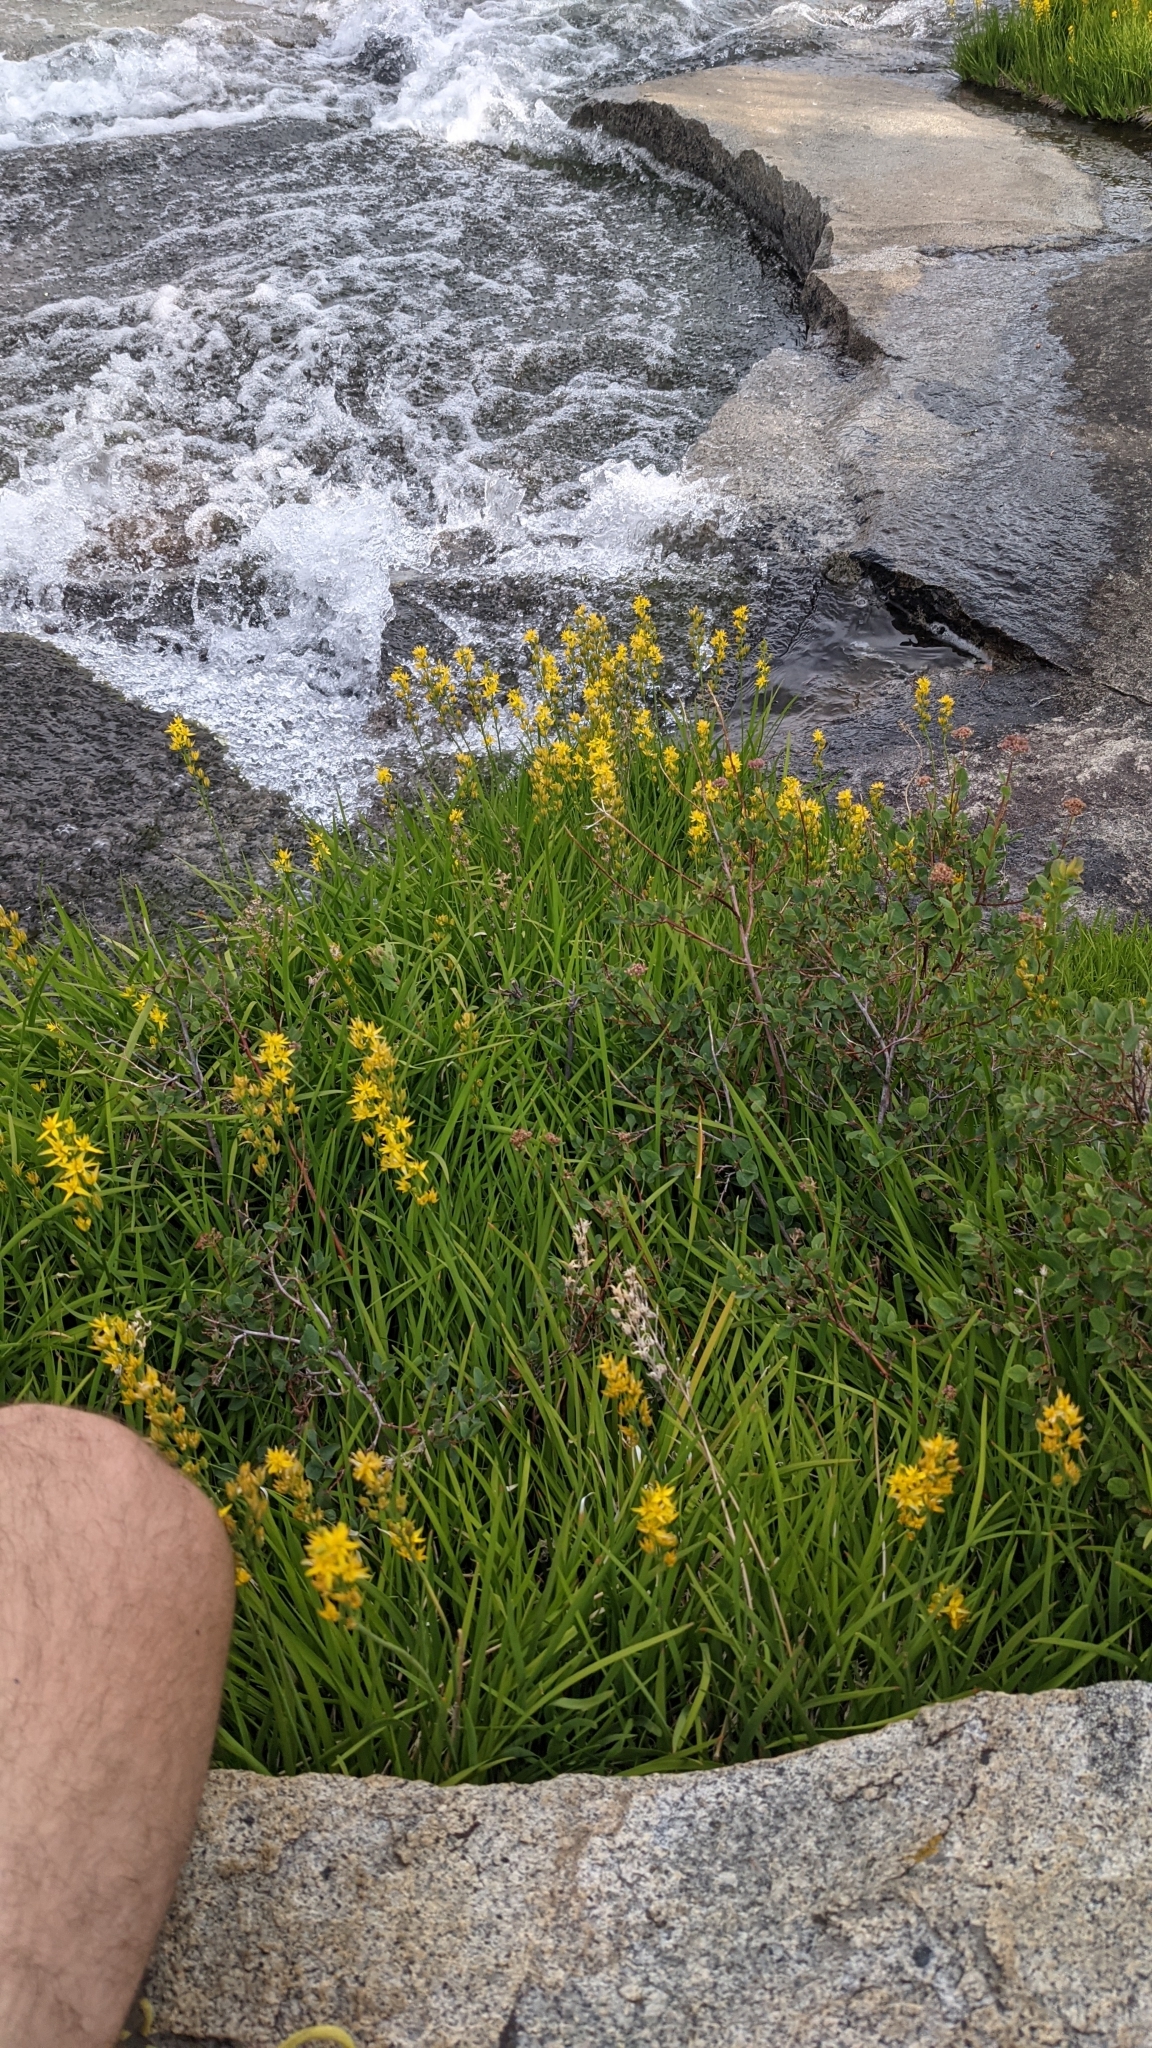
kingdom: Plantae
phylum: Tracheophyta
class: Liliopsida
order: Dioscoreales
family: Nartheciaceae
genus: Narthecium
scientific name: Narthecium californicum
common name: California bog-asphodel
